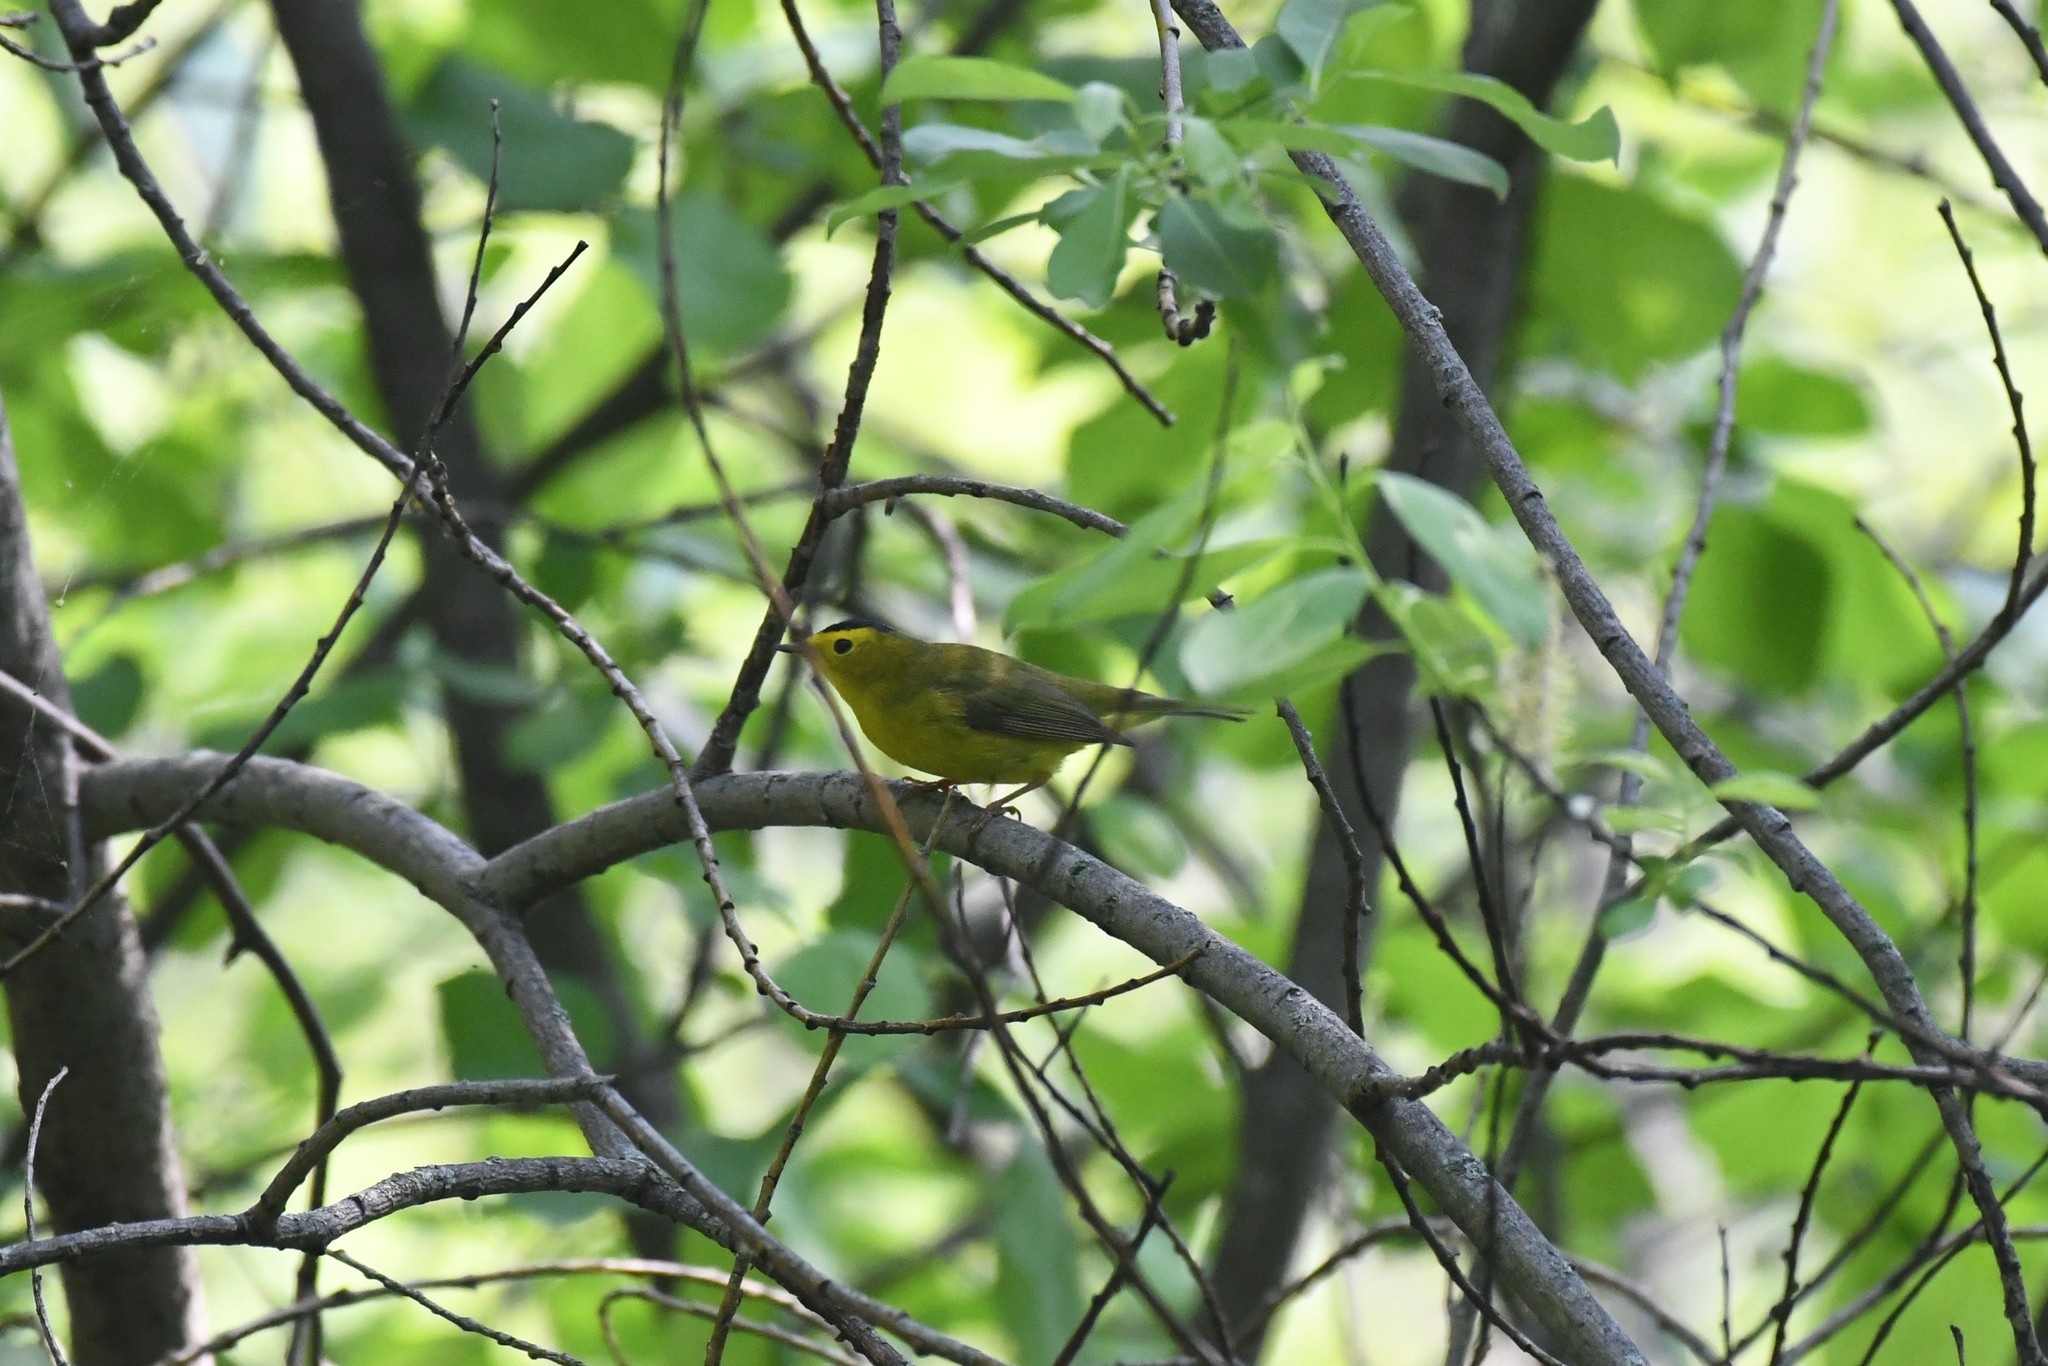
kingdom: Animalia
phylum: Chordata
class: Aves
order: Passeriformes
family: Parulidae
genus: Cardellina
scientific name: Cardellina pusilla
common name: Wilson's warbler
